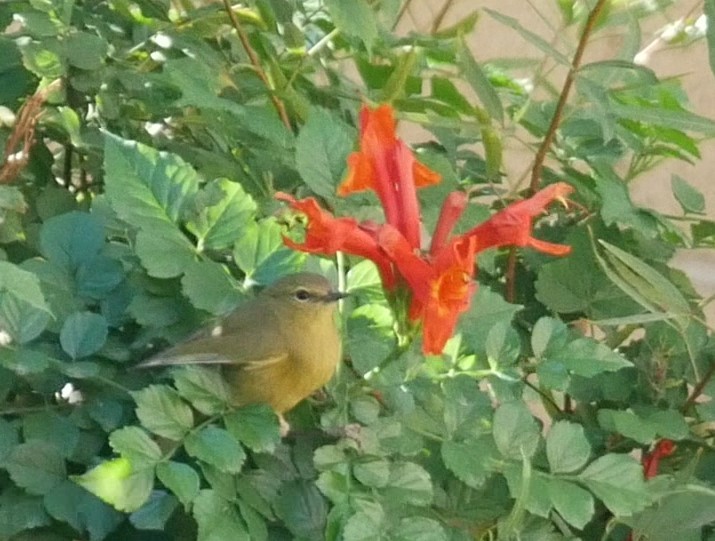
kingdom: Animalia
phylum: Chordata
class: Aves
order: Passeriformes
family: Parulidae
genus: Leiothlypis
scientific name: Leiothlypis celata
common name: Orange-crowned warbler
